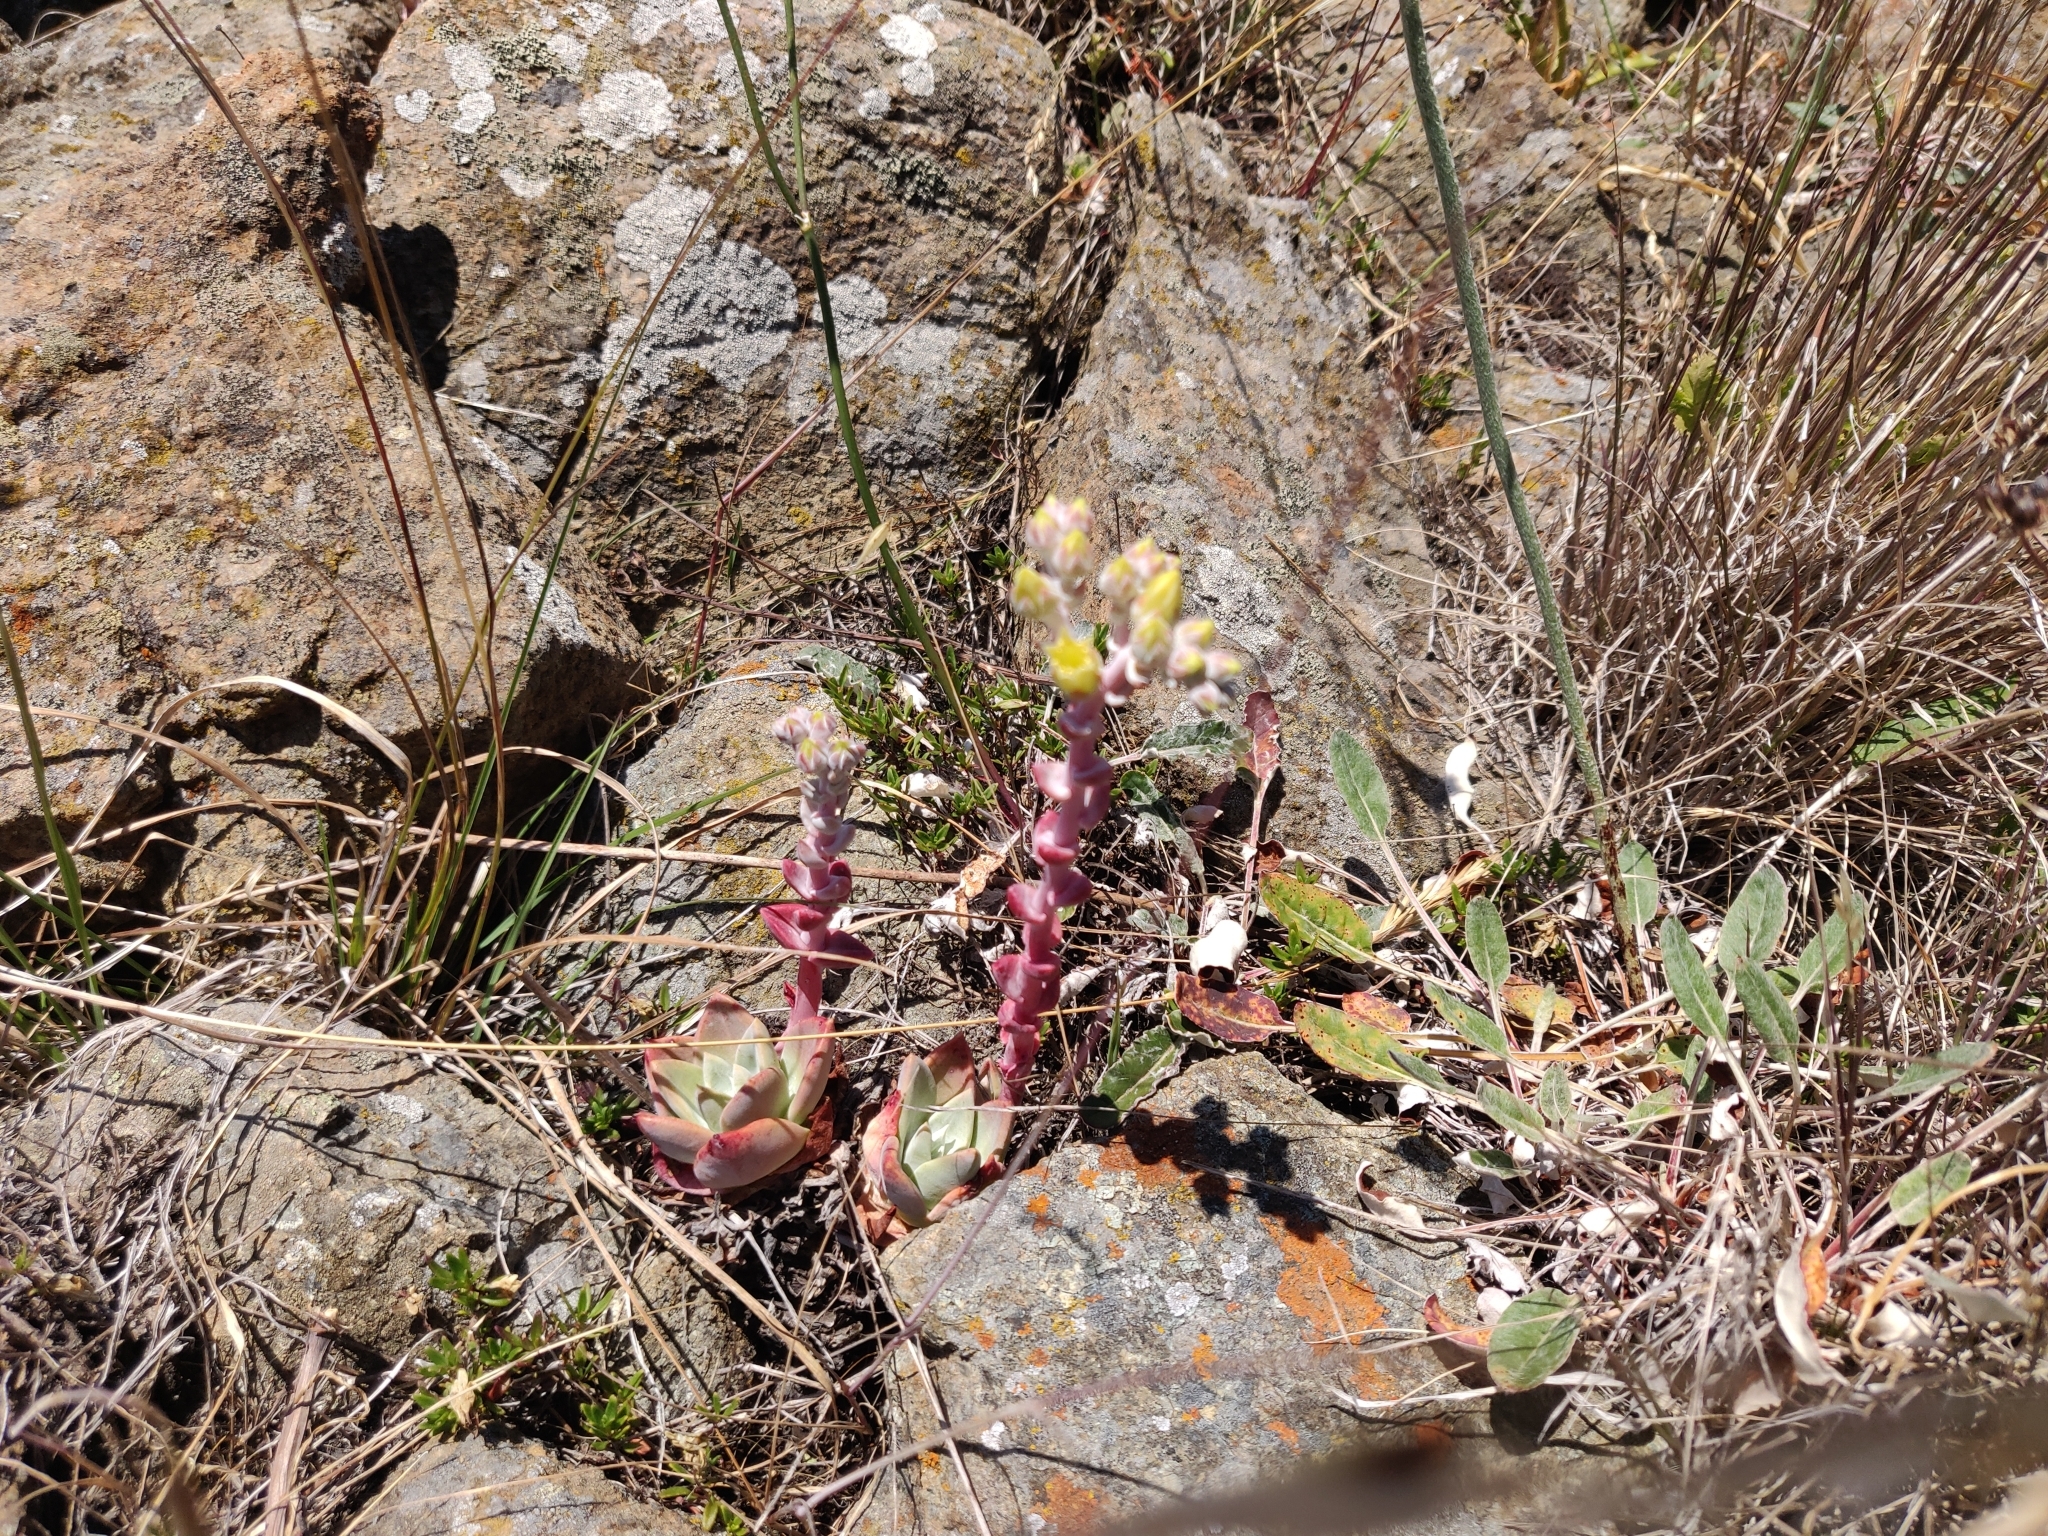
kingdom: Plantae
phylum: Tracheophyta
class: Magnoliopsida
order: Saxifragales
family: Crassulaceae
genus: Dudleya
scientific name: Dudleya farinosa
